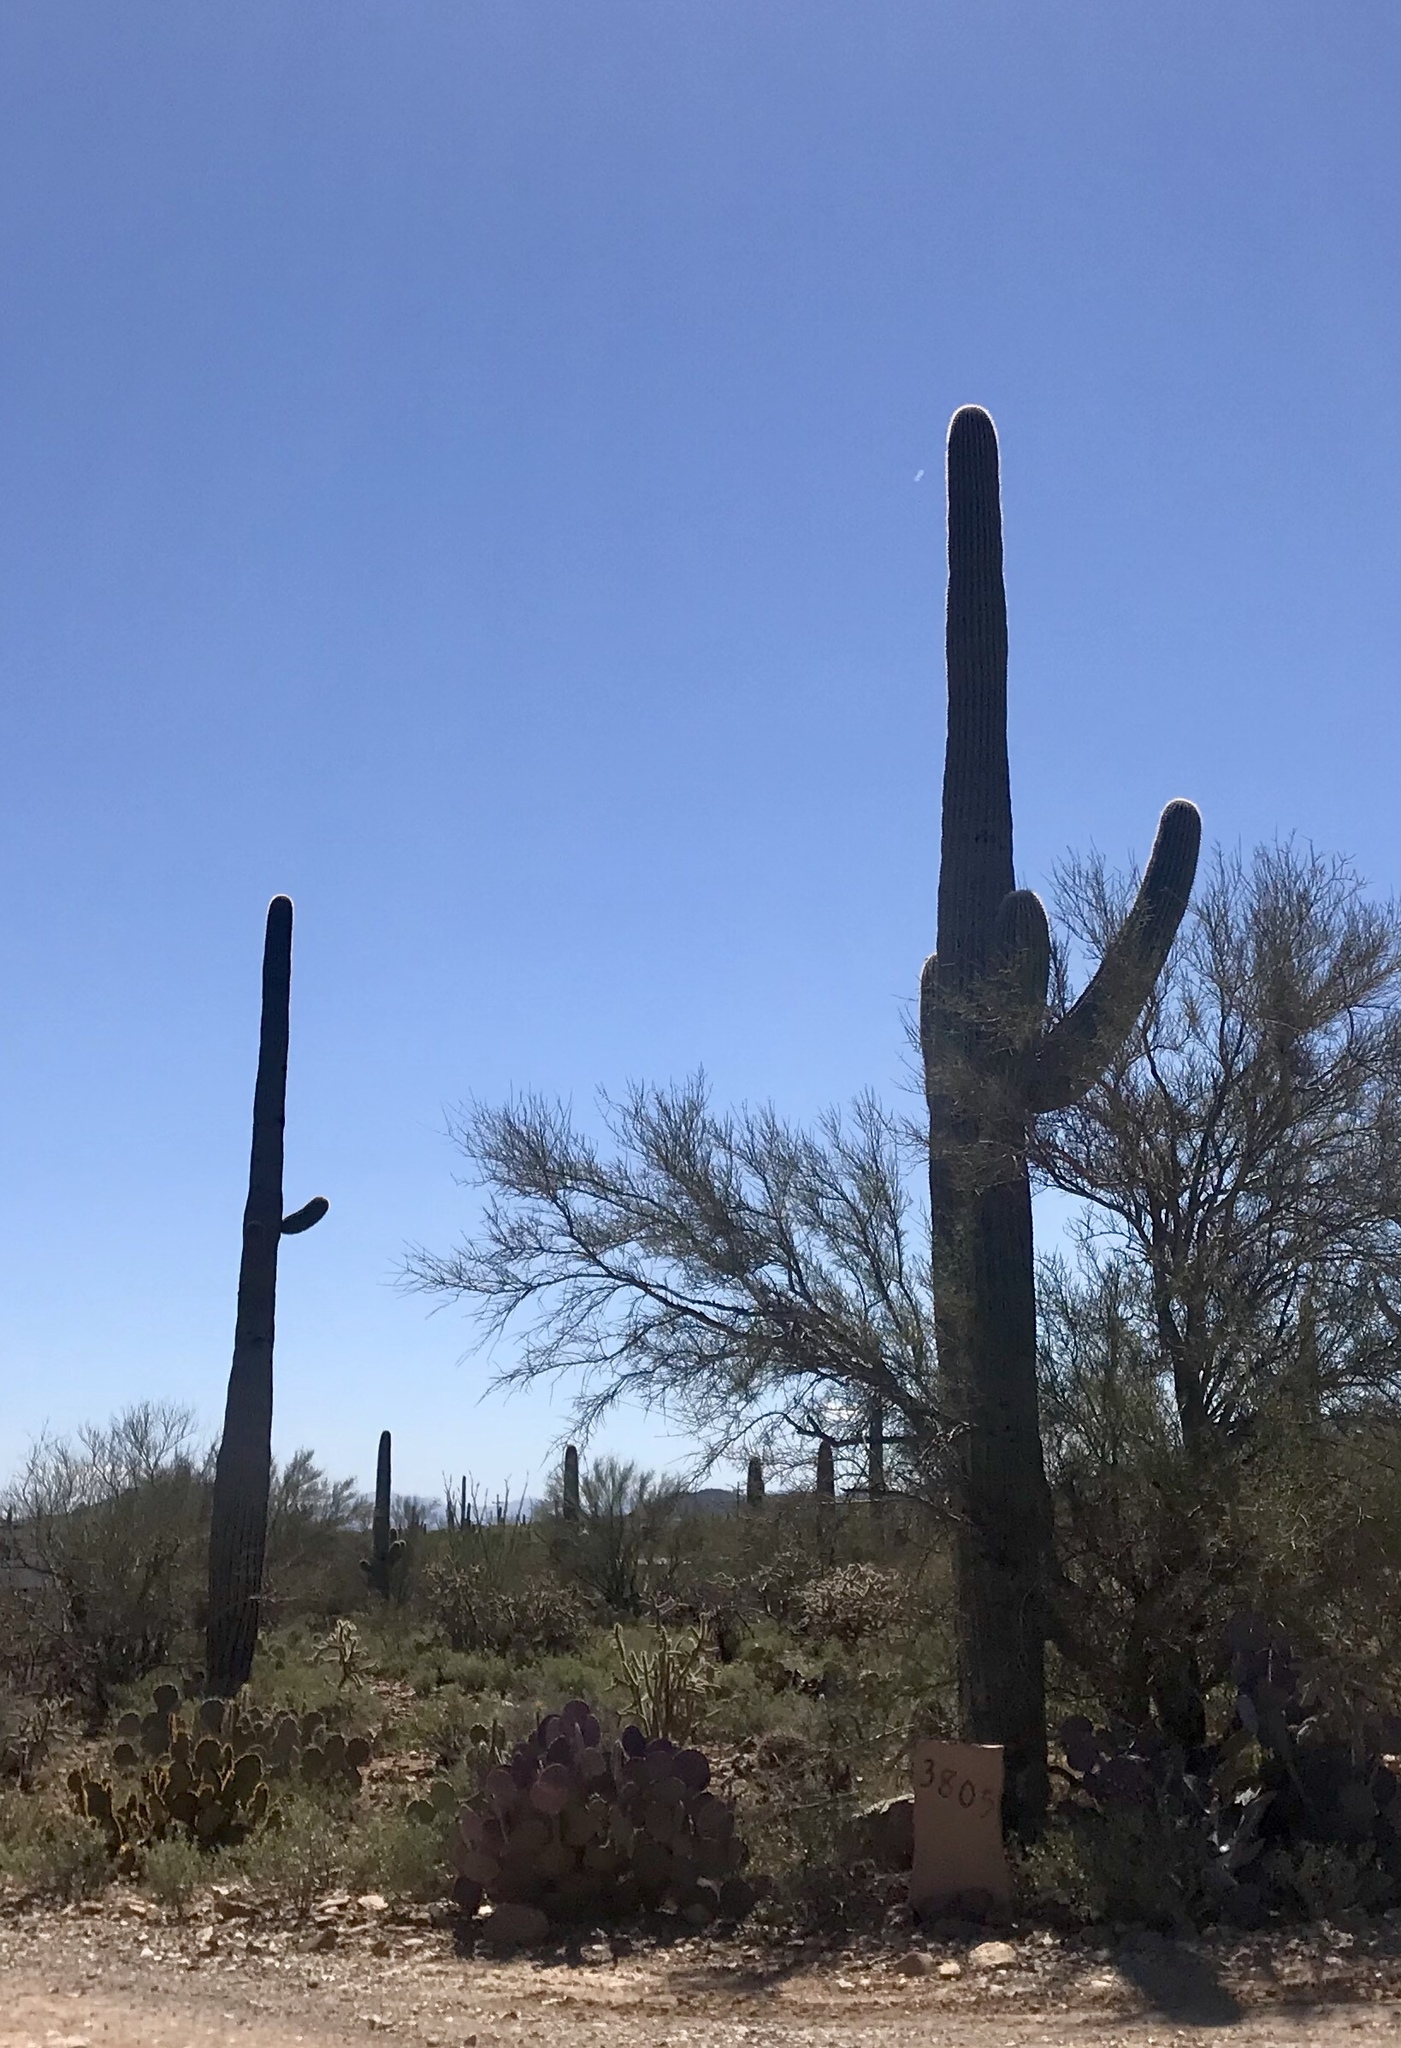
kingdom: Plantae
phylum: Tracheophyta
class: Magnoliopsida
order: Caryophyllales
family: Cactaceae
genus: Carnegiea
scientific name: Carnegiea gigantea
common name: Saguaro
